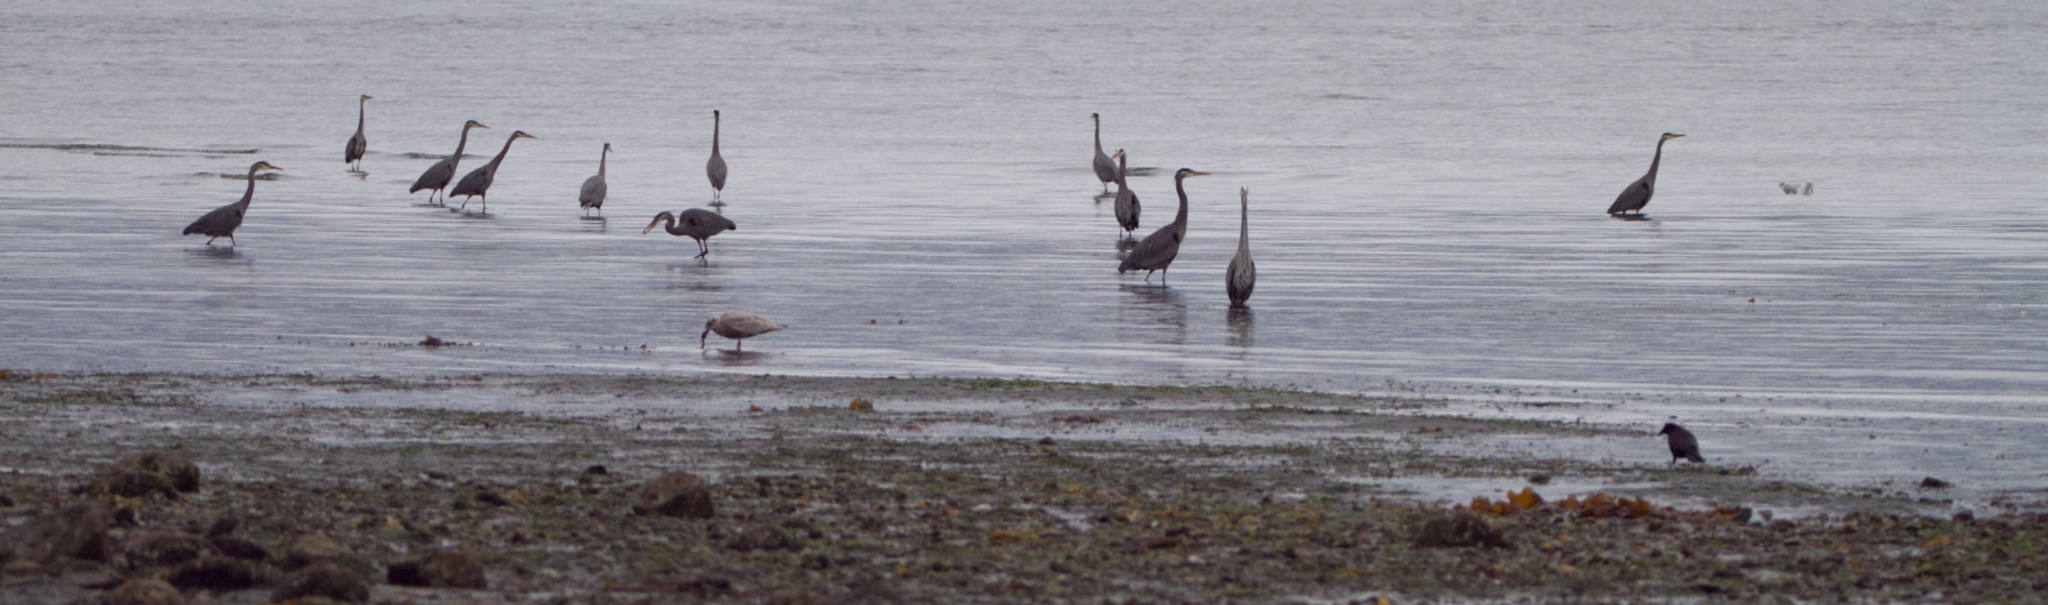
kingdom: Animalia
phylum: Chordata
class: Aves
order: Pelecaniformes
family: Ardeidae
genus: Ardea
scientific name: Ardea herodias
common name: Great blue heron
